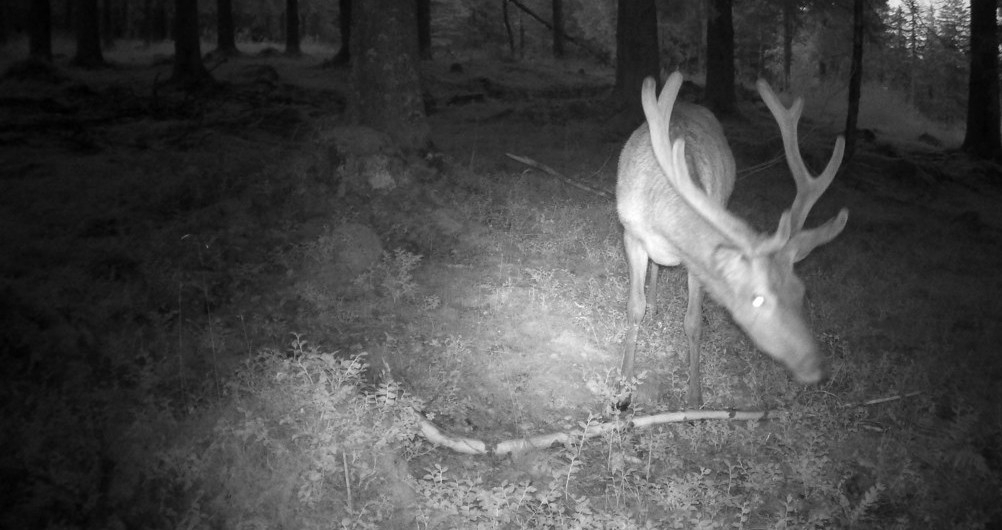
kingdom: Animalia
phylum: Chordata
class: Mammalia
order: Artiodactyla
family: Cervidae
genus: Cervus
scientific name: Cervus elaphus
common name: Red deer
